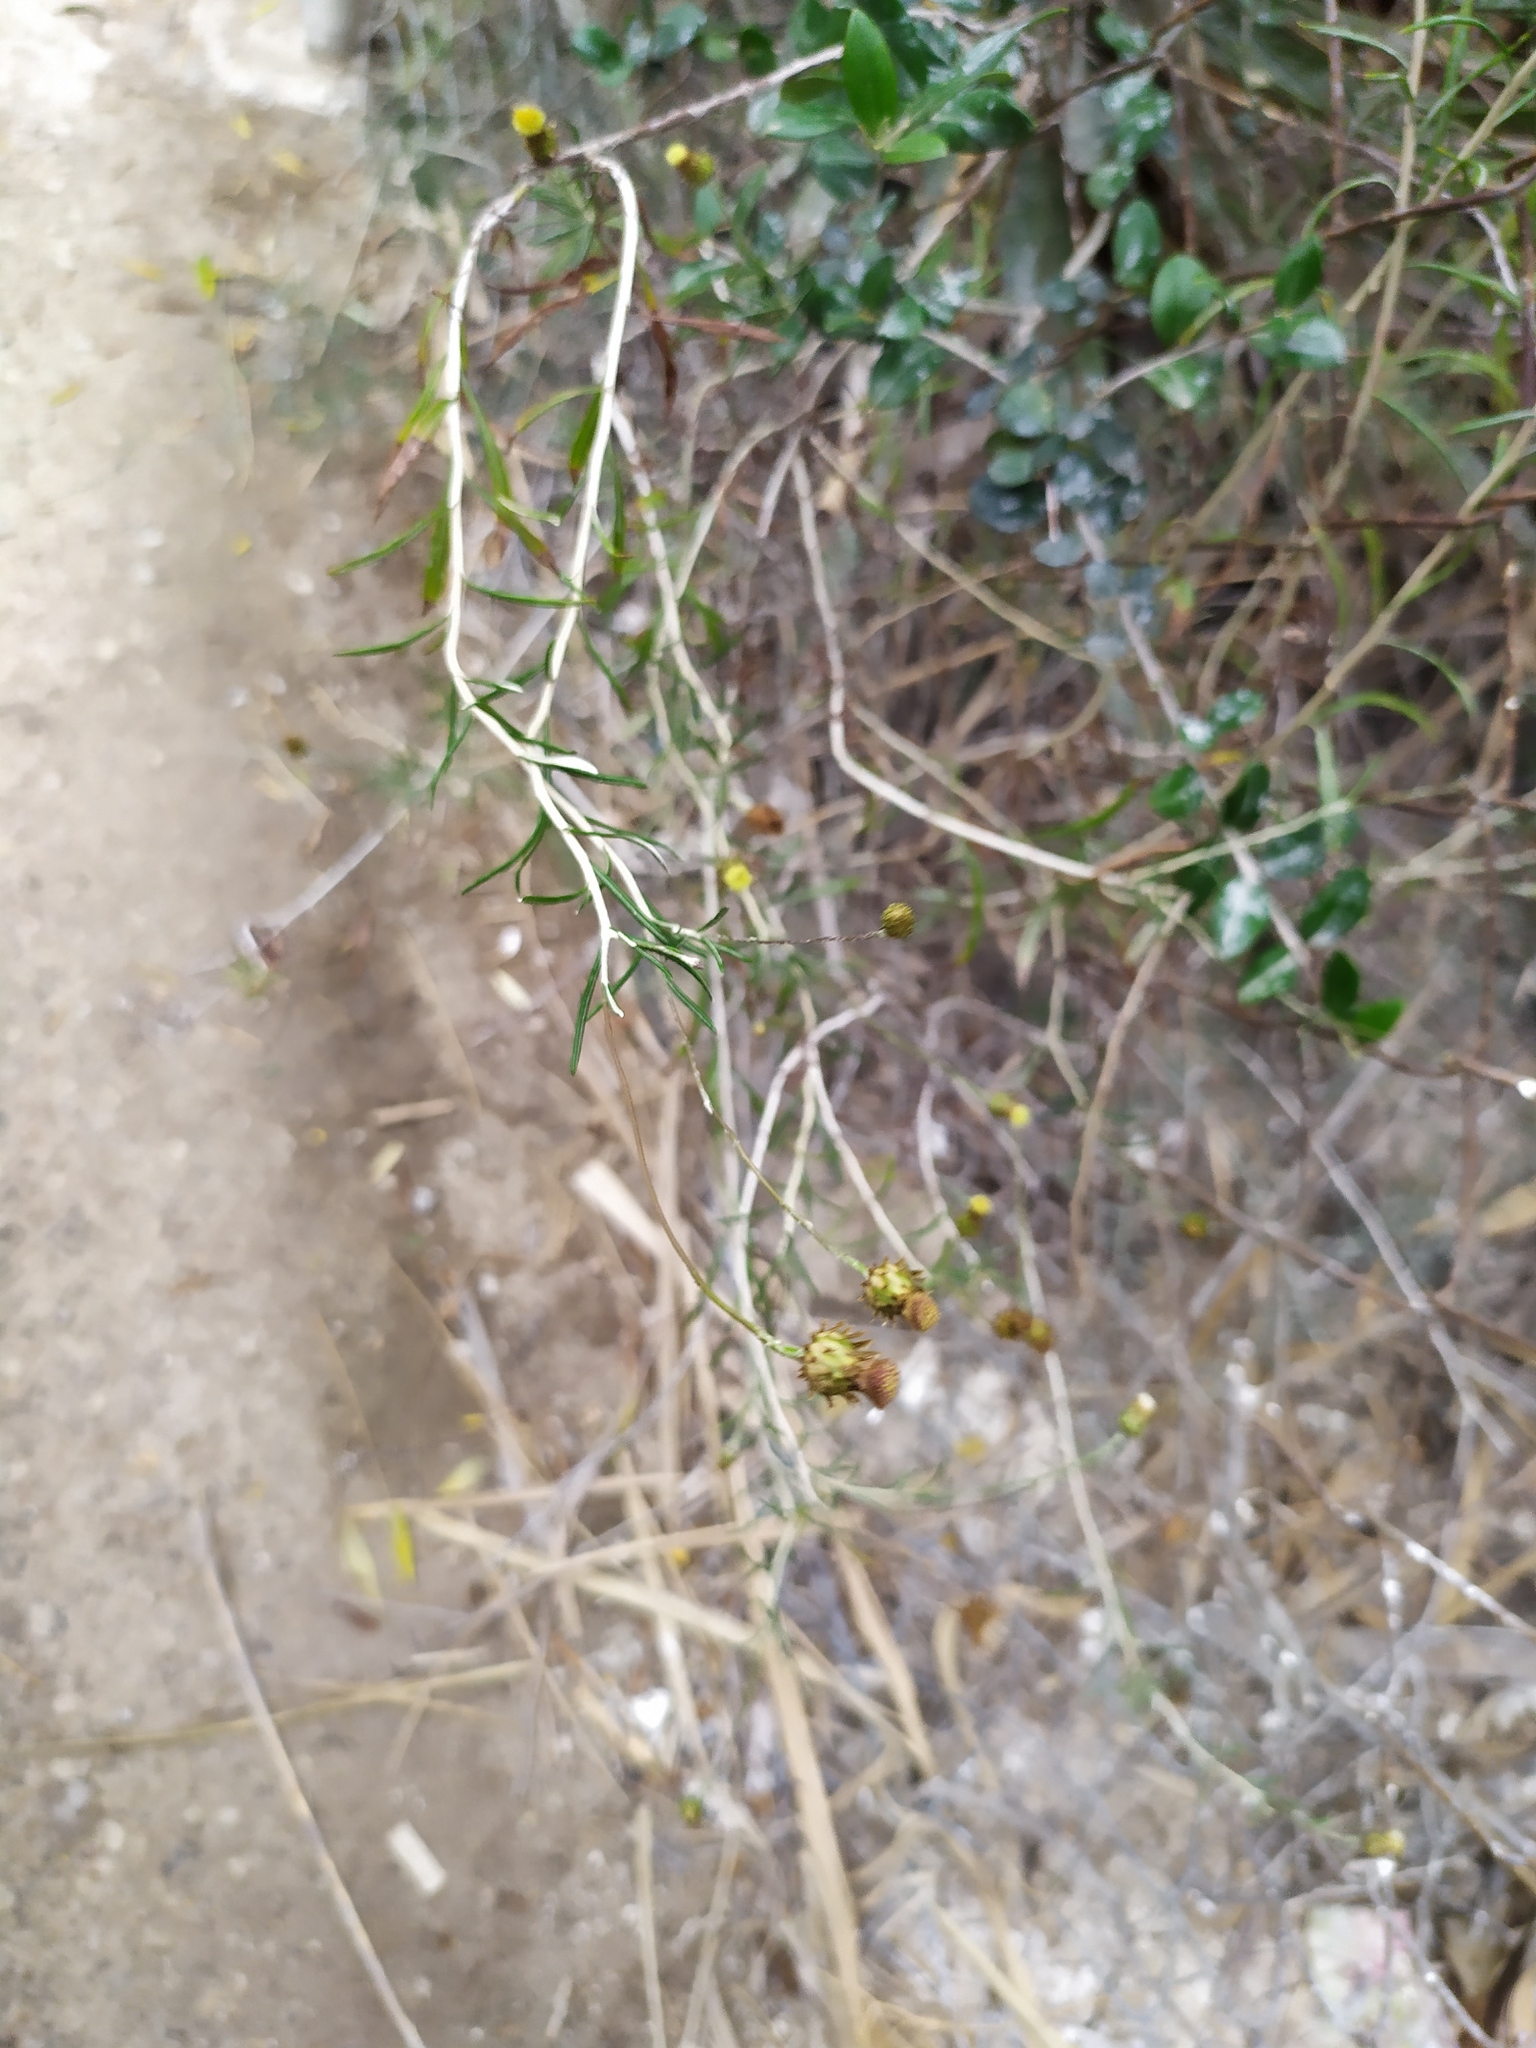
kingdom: Plantae
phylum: Tracheophyta
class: Magnoliopsida
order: Asterales
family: Asteraceae
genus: Phagnalon
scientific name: Phagnalon saxatile
